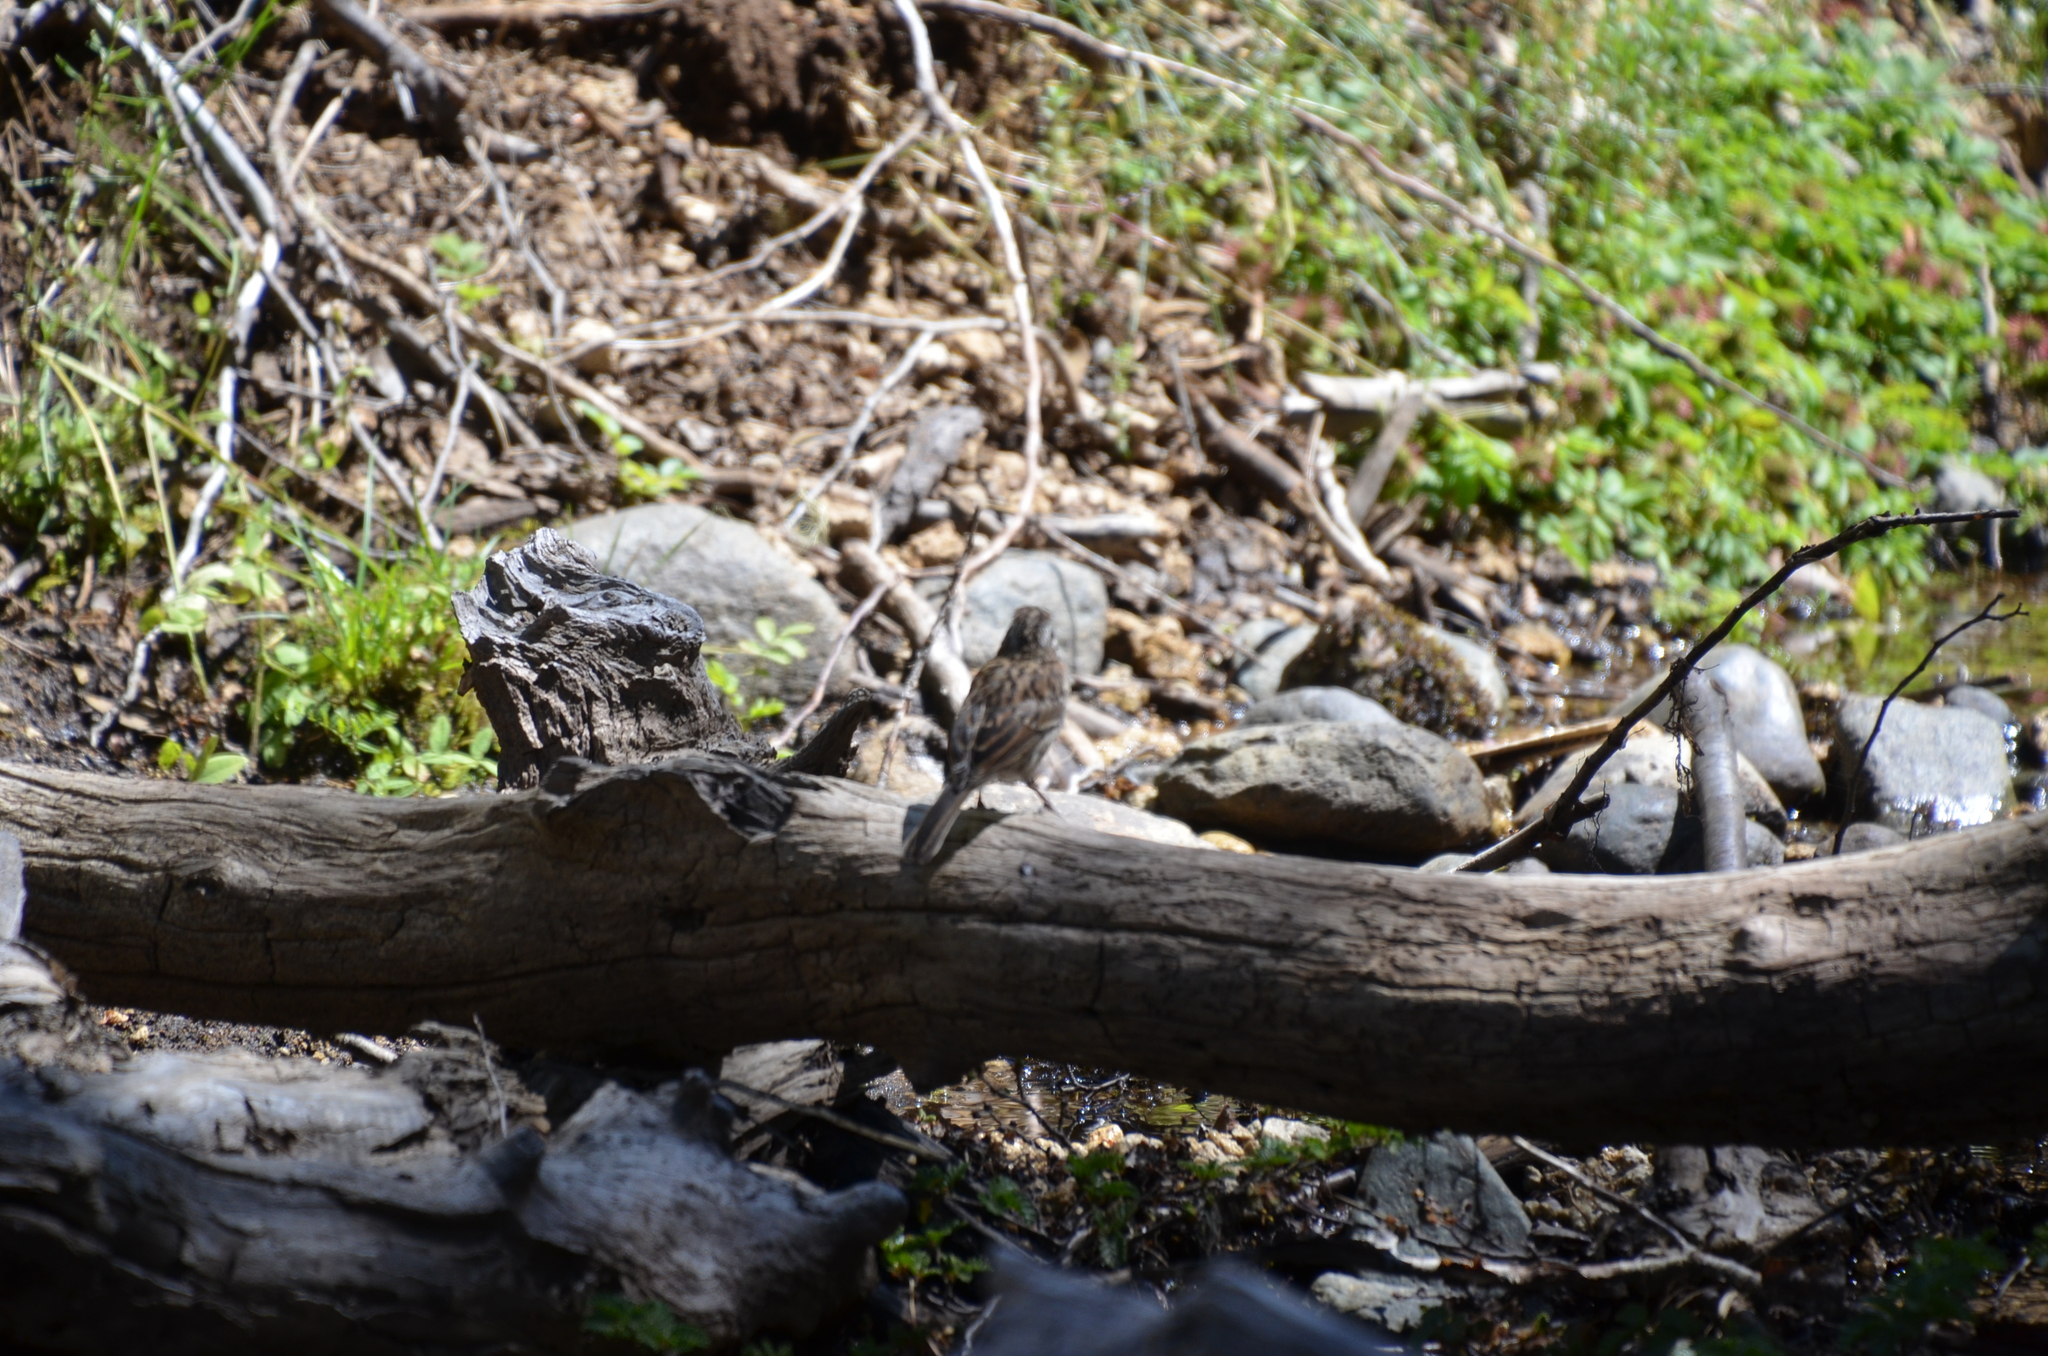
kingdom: Animalia
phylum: Chordata
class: Aves
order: Passeriformes
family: Passerellidae
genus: Zonotrichia
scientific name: Zonotrichia capensis
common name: Rufous-collared sparrow
